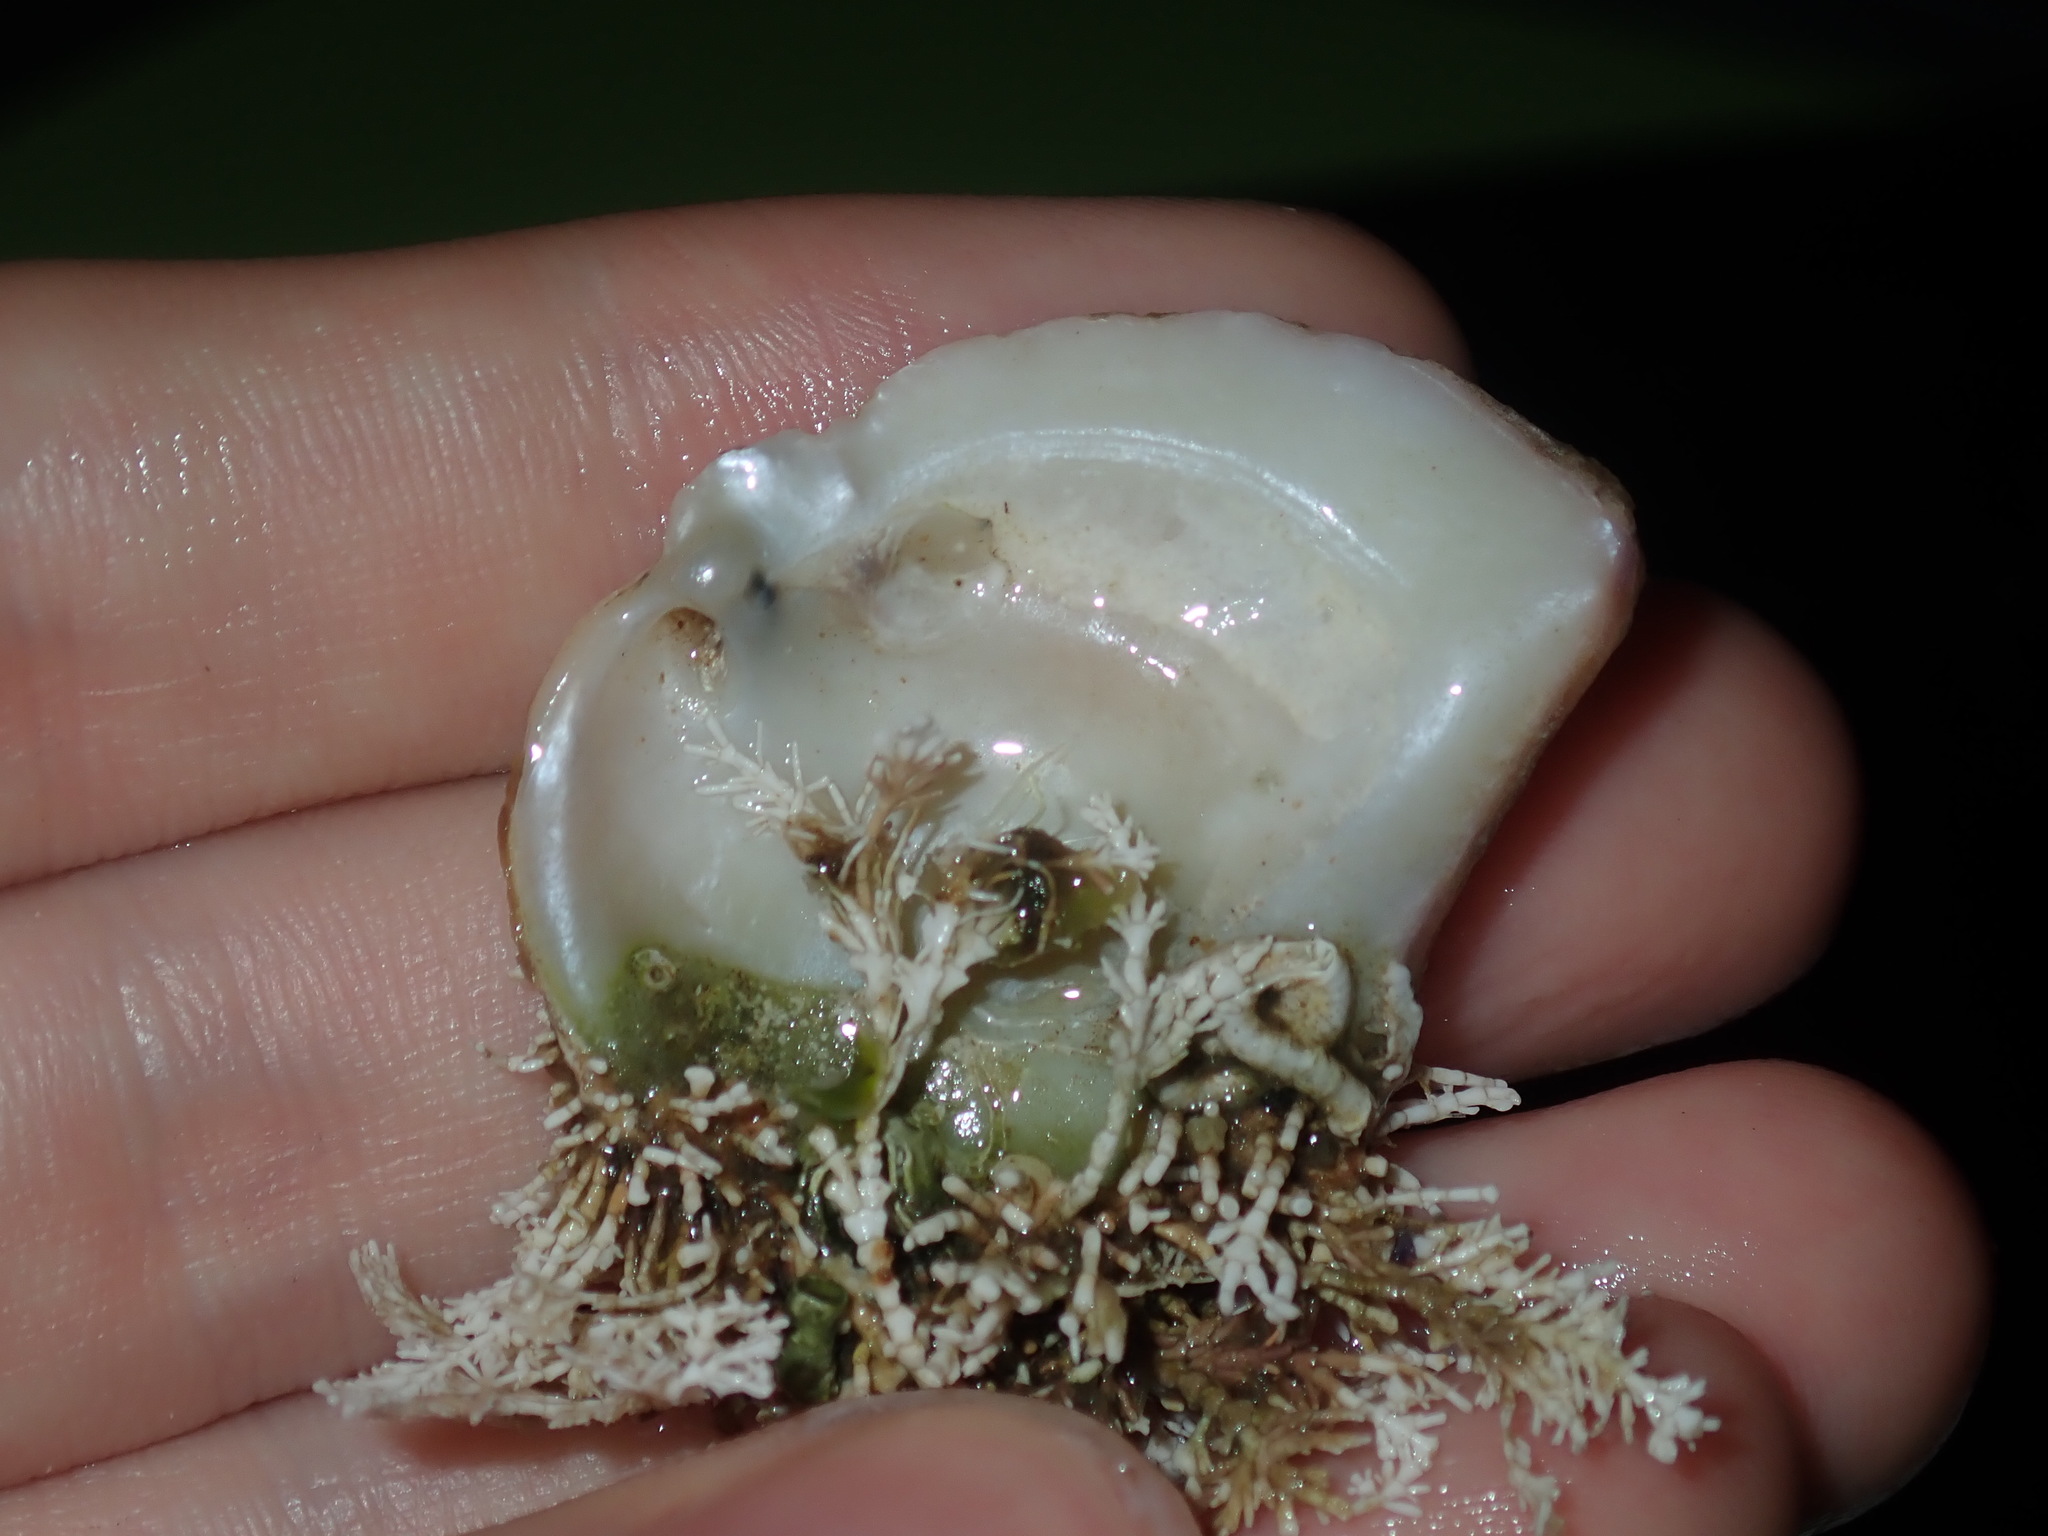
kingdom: Animalia
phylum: Mollusca
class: Bivalvia
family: Cleidothaeridae
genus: Cleidothaerus
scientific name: Cleidothaerus albidus
